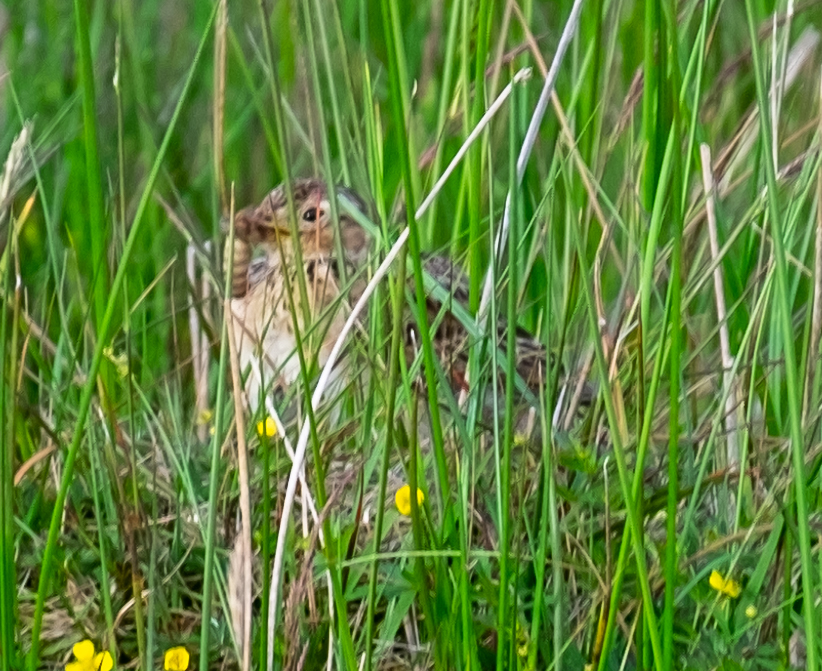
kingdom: Animalia
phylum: Chordata
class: Aves
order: Passeriformes
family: Alaudidae
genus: Alauda
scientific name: Alauda arvensis
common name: Eurasian skylark
